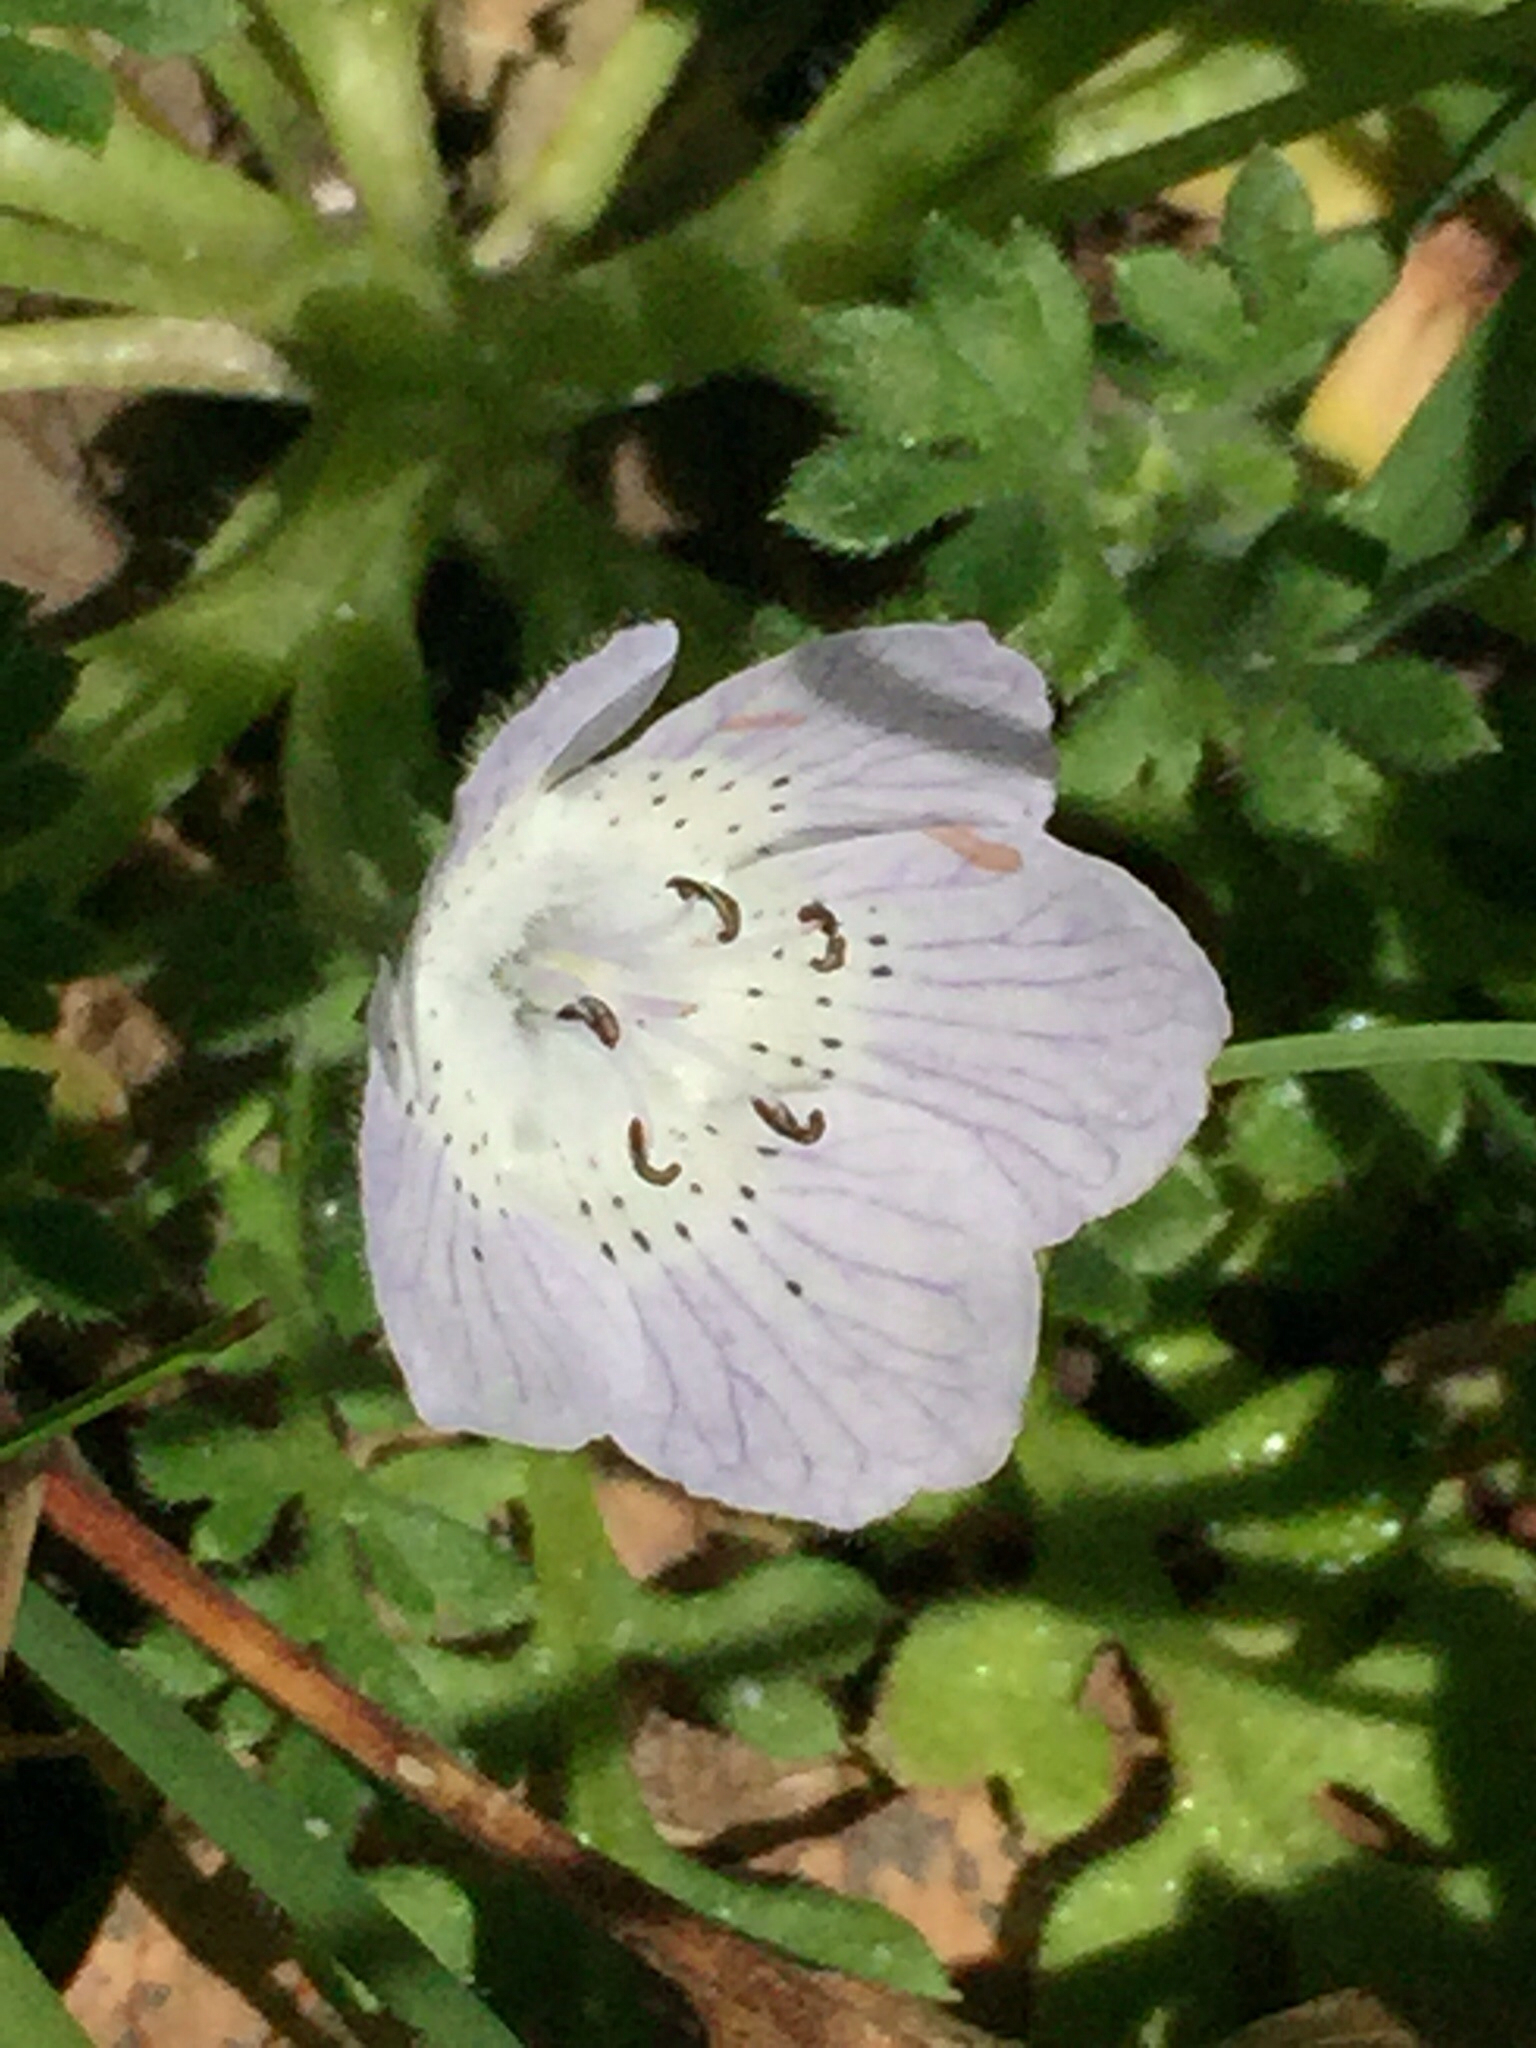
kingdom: Plantae
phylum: Tracheophyta
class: Magnoliopsida
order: Boraginales
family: Hydrophyllaceae
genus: Nemophila
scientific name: Nemophila menziesii
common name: Baby's-blue-eyes
